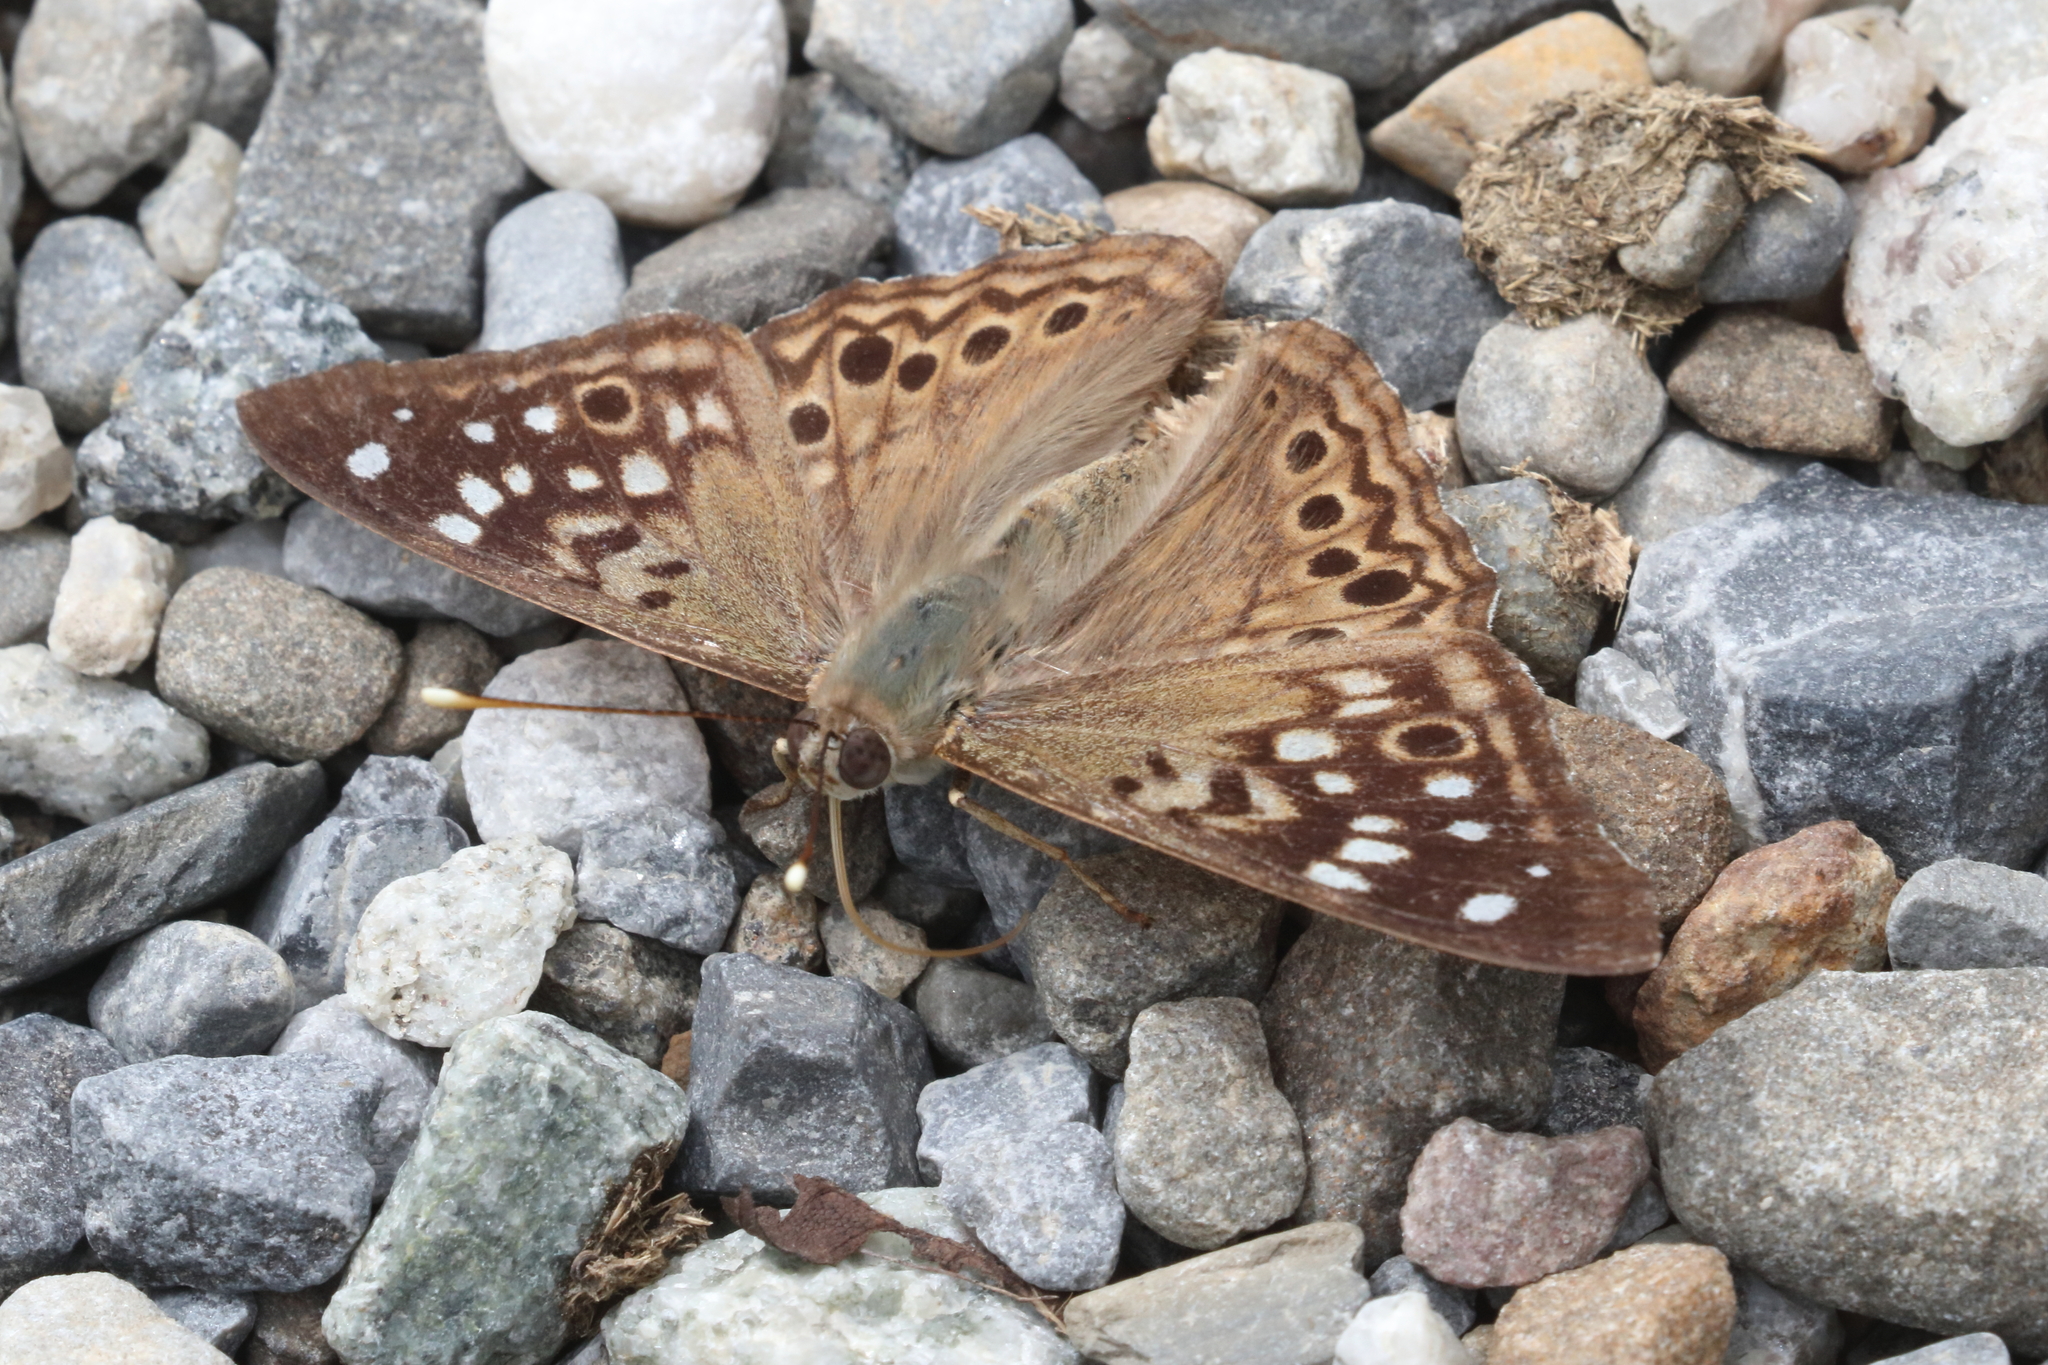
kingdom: Animalia
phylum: Arthropoda
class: Insecta
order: Lepidoptera
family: Nymphalidae
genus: Asterocampa
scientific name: Asterocampa celtis
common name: Hackberry emperor
